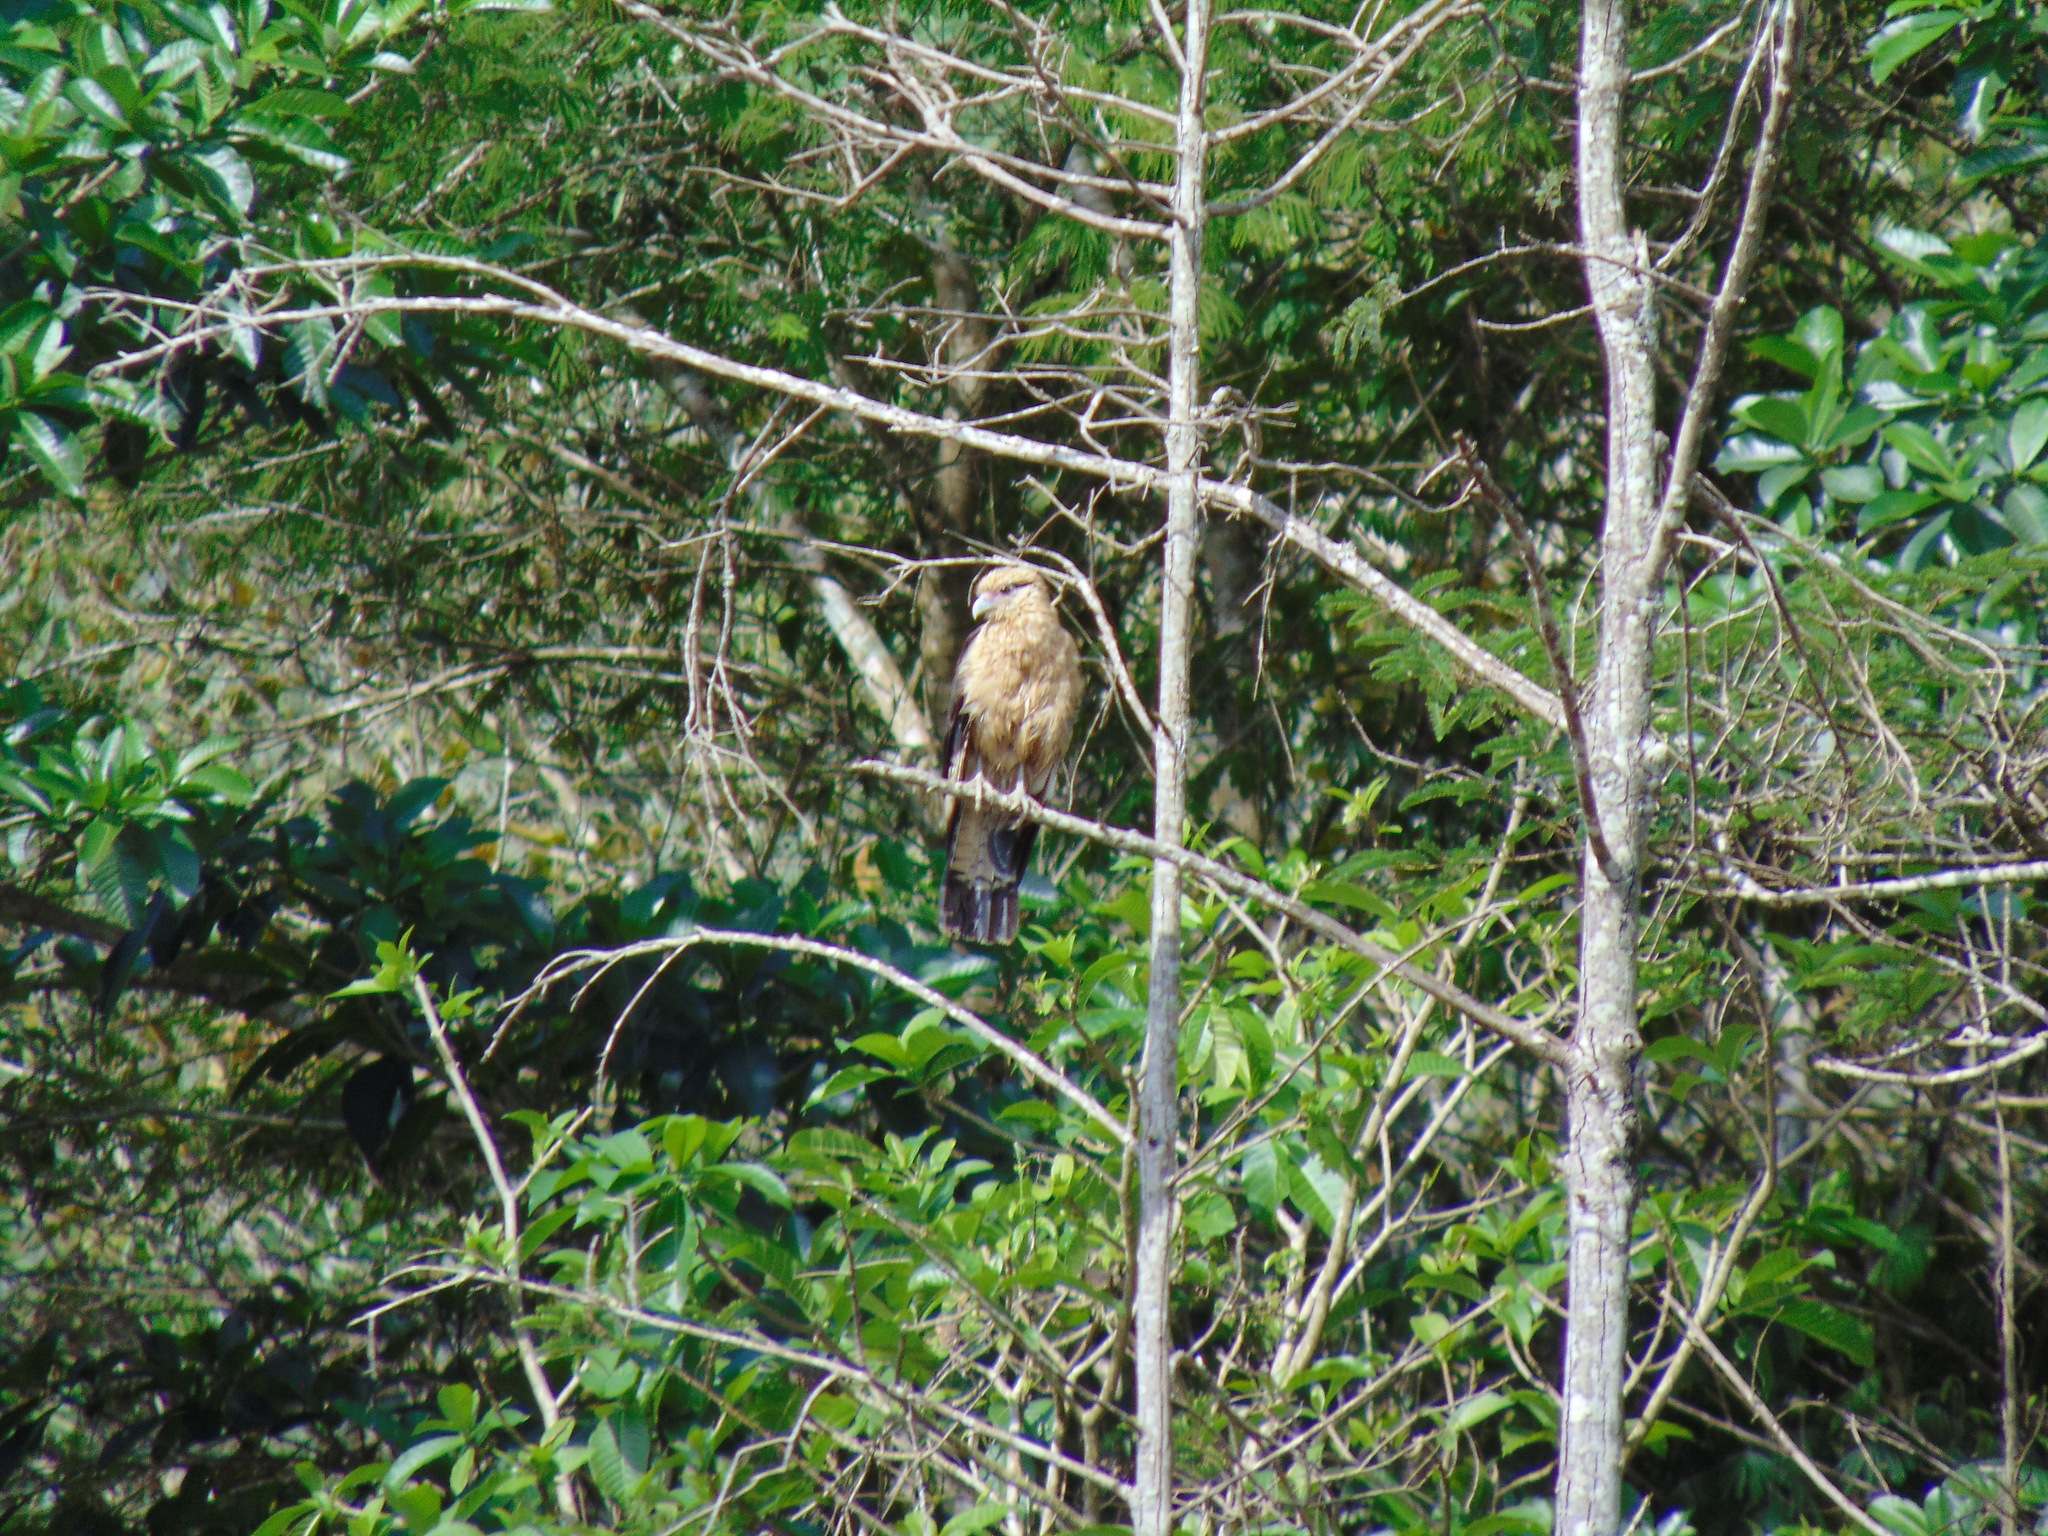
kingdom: Animalia
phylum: Chordata
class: Aves
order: Falconiformes
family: Falconidae
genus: Daptrius
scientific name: Daptrius
